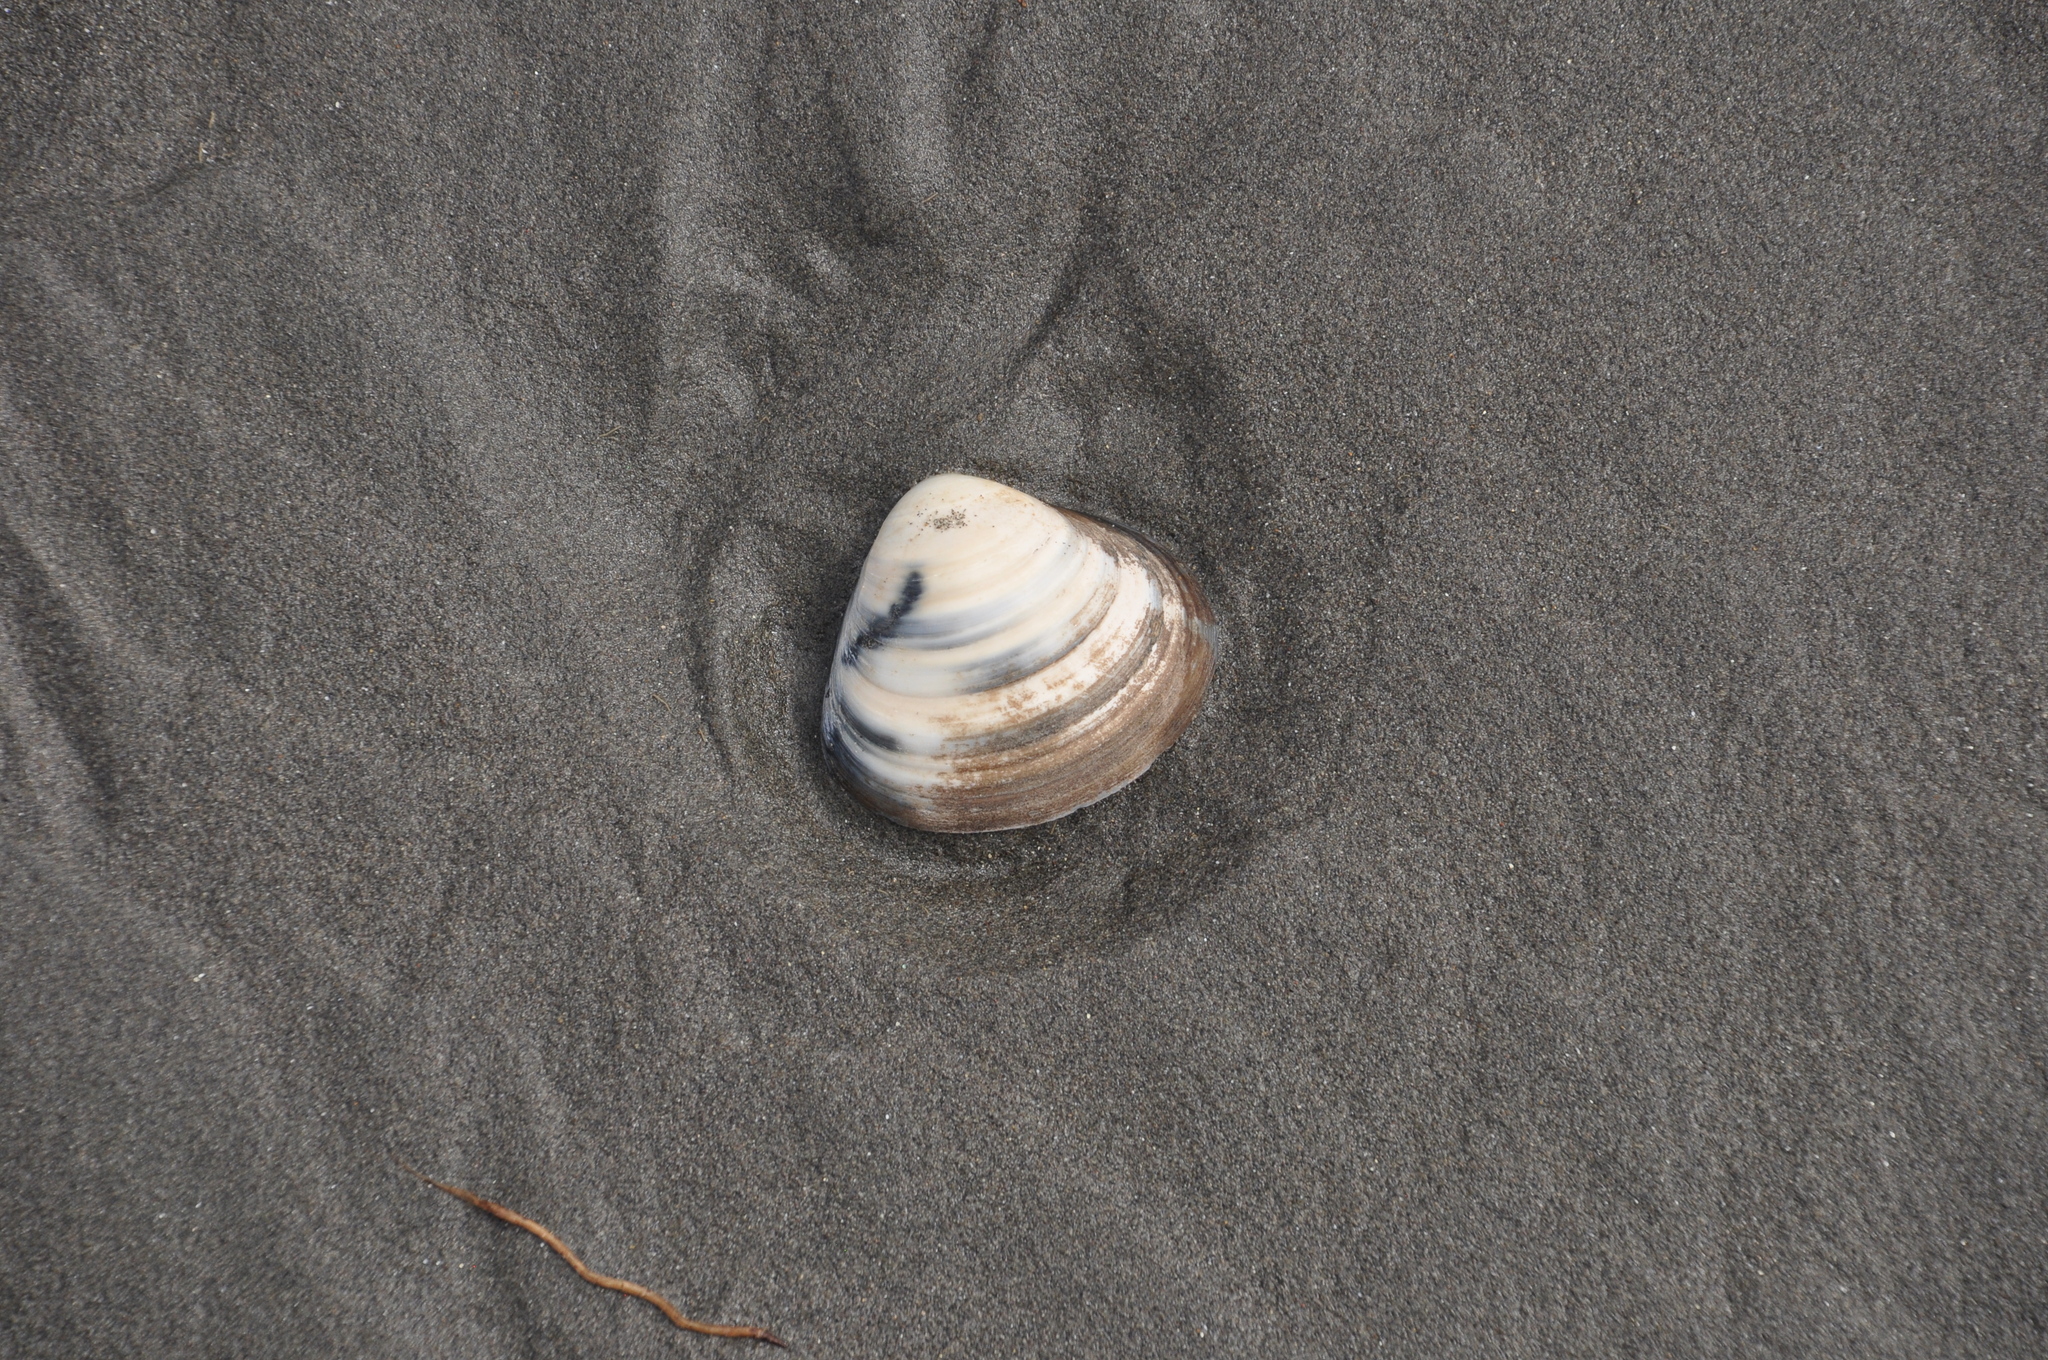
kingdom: Animalia
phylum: Mollusca
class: Bivalvia
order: Venerida
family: Mactridae
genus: Spisula
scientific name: Spisula discors
